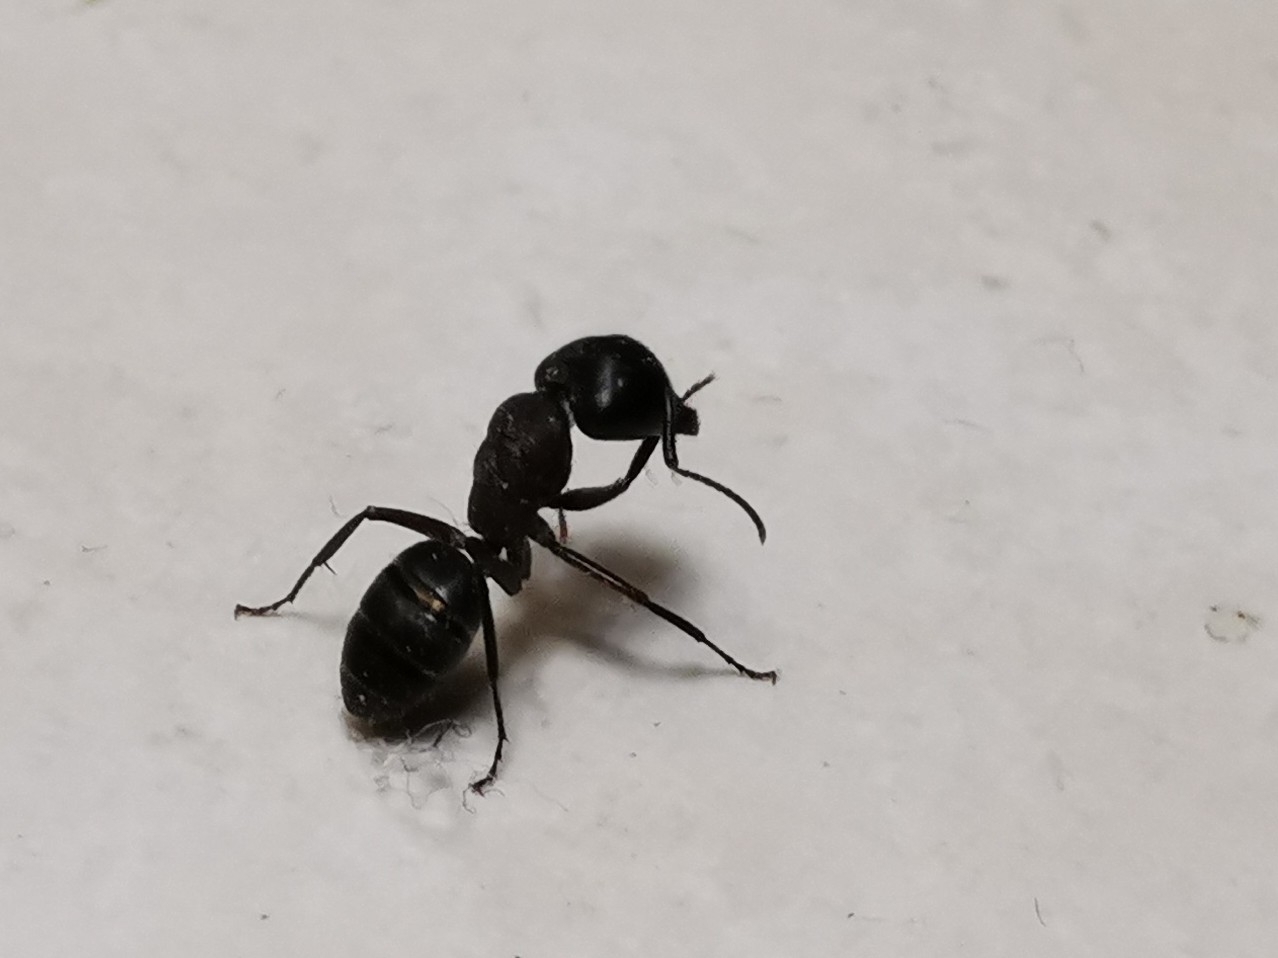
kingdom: Animalia
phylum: Arthropoda
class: Insecta
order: Hymenoptera
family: Formicidae
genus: Camponotus
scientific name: Camponotus pennsylvanicus
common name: Black carpenter ant
